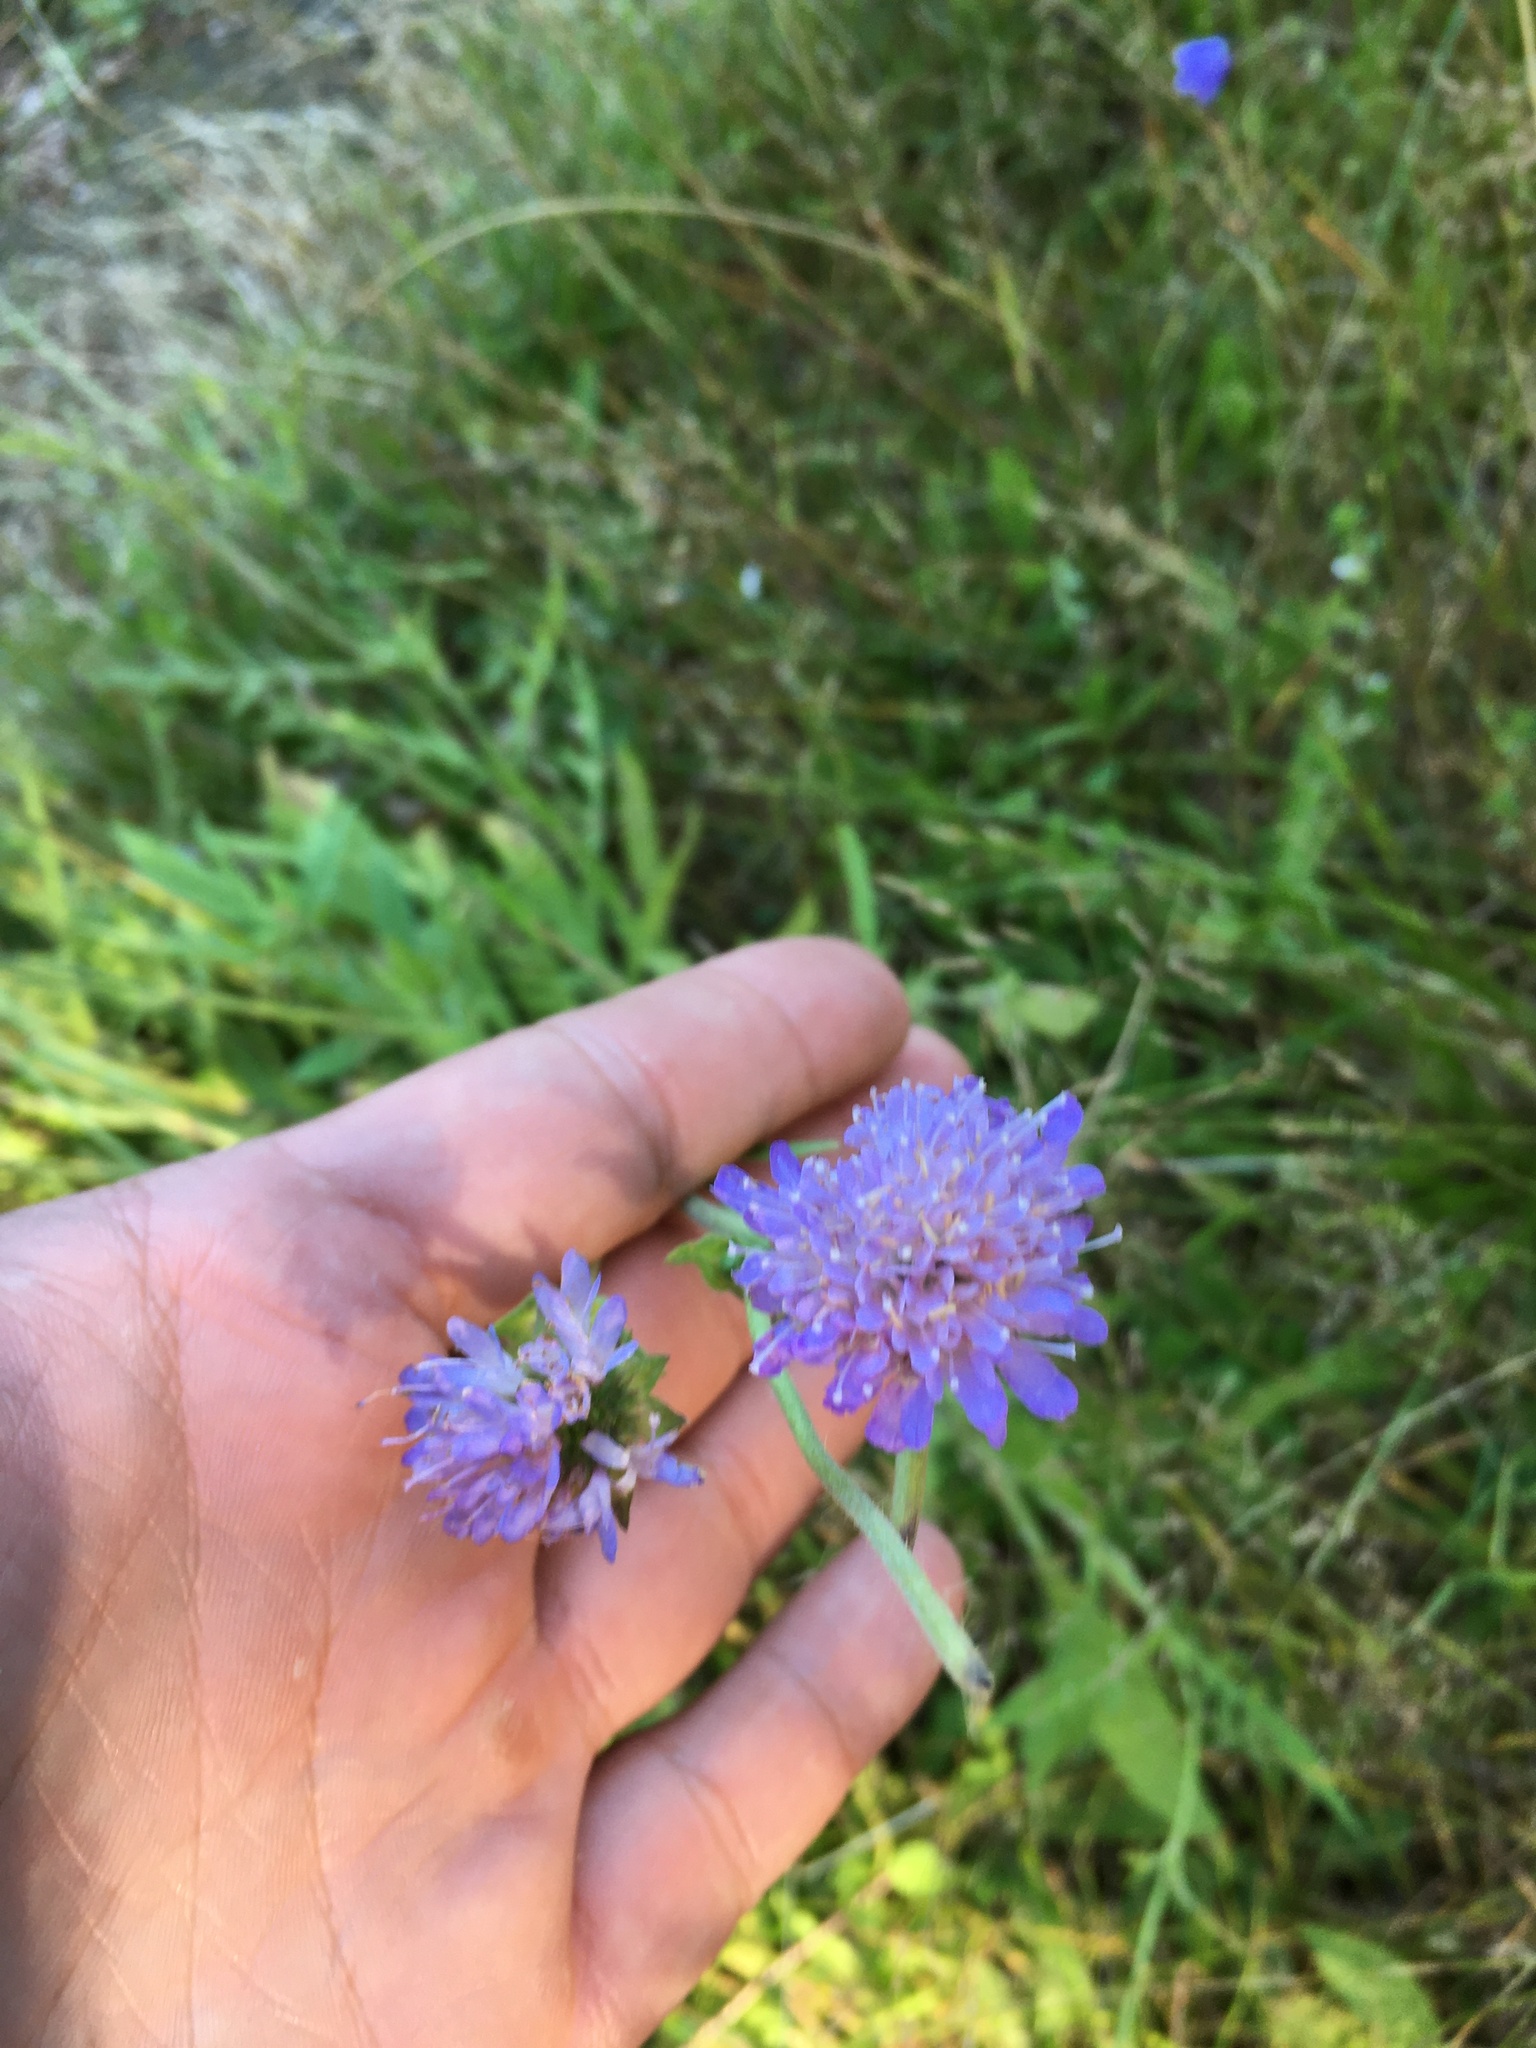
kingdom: Plantae
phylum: Tracheophyta
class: Magnoliopsida
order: Dipsacales
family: Caprifoliaceae
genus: Knautia
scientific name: Knautia arvensis
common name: Field scabiosa
